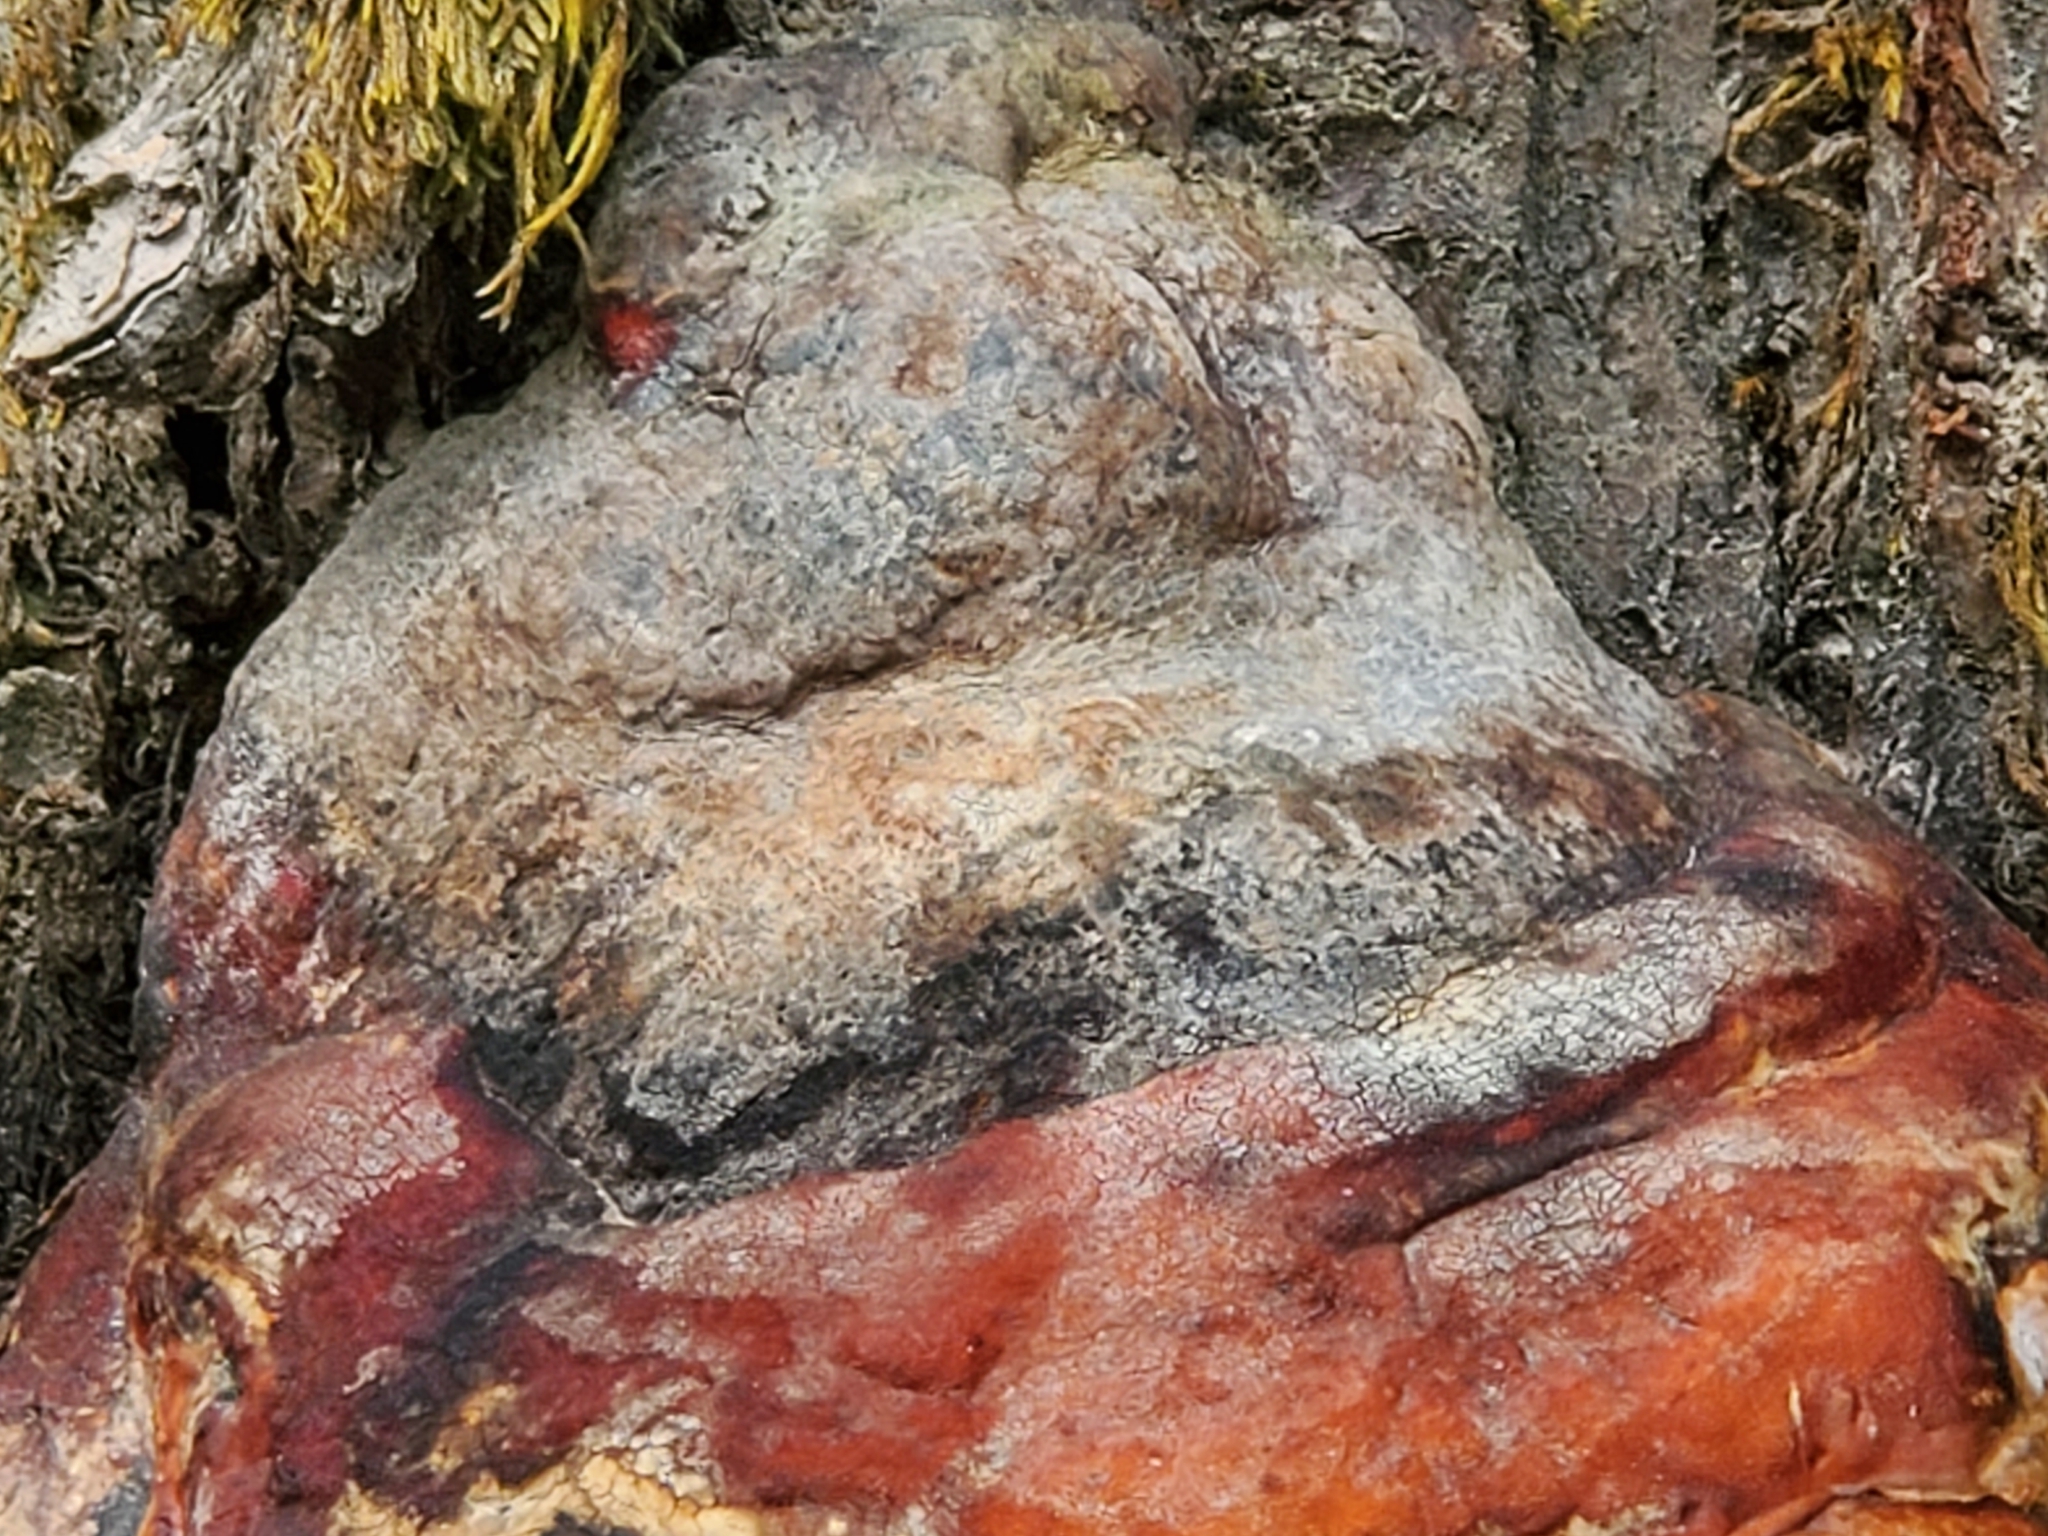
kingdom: Fungi
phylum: Basidiomycota
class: Agaricomycetes
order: Polyporales
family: Fomitopsidaceae
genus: Fomitopsis
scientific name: Fomitopsis mounceae
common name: Northern red belt
